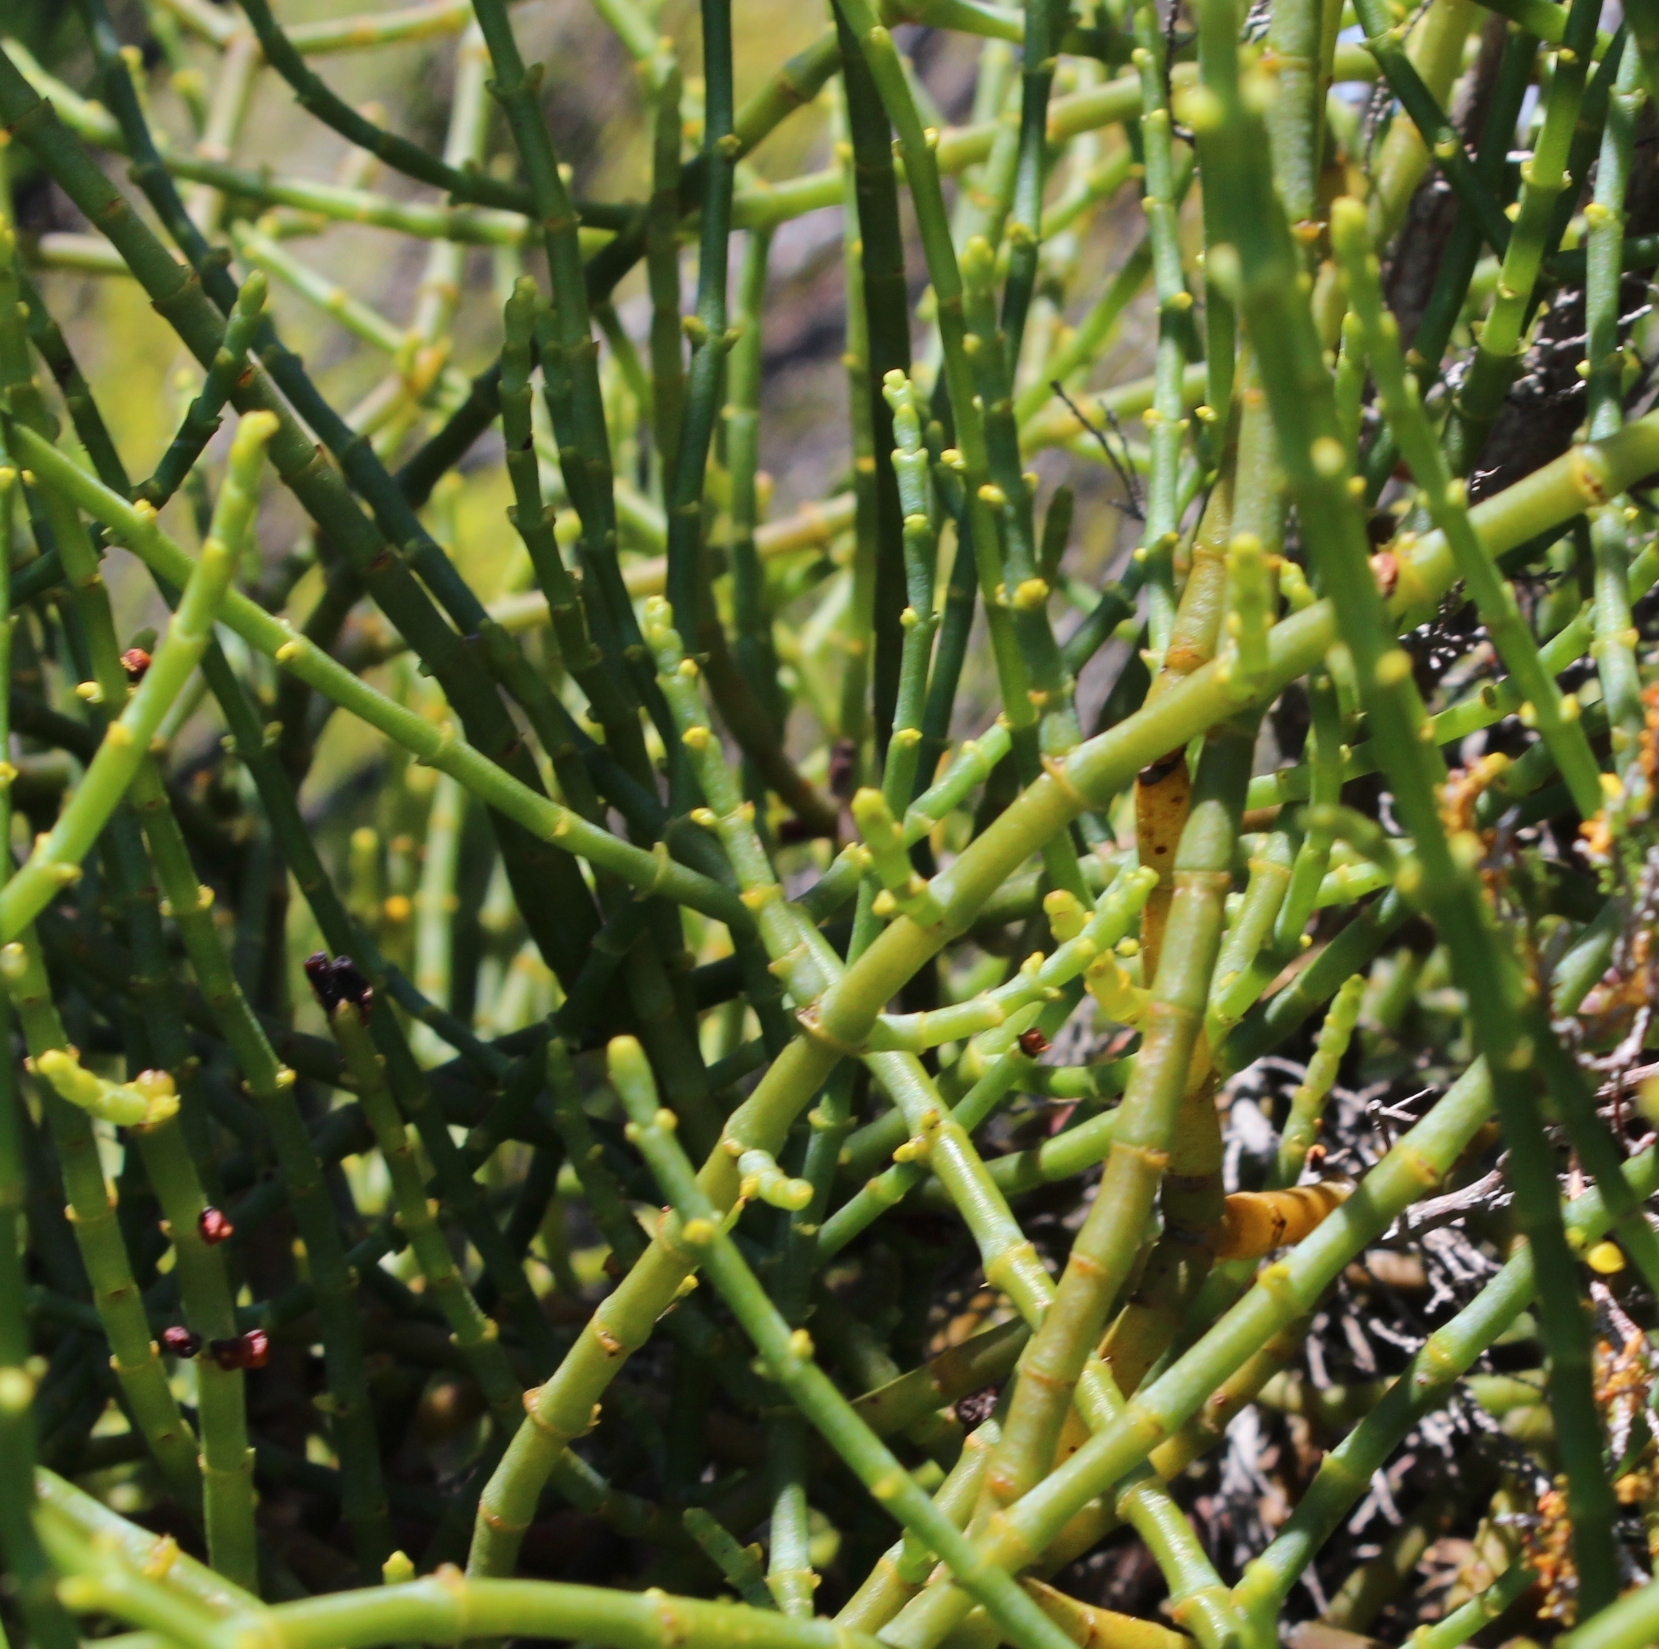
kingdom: Plantae
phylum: Tracheophyta
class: Magnoliopsida
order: Santalales
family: Viscaceae
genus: Viscum
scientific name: Viscum capense
